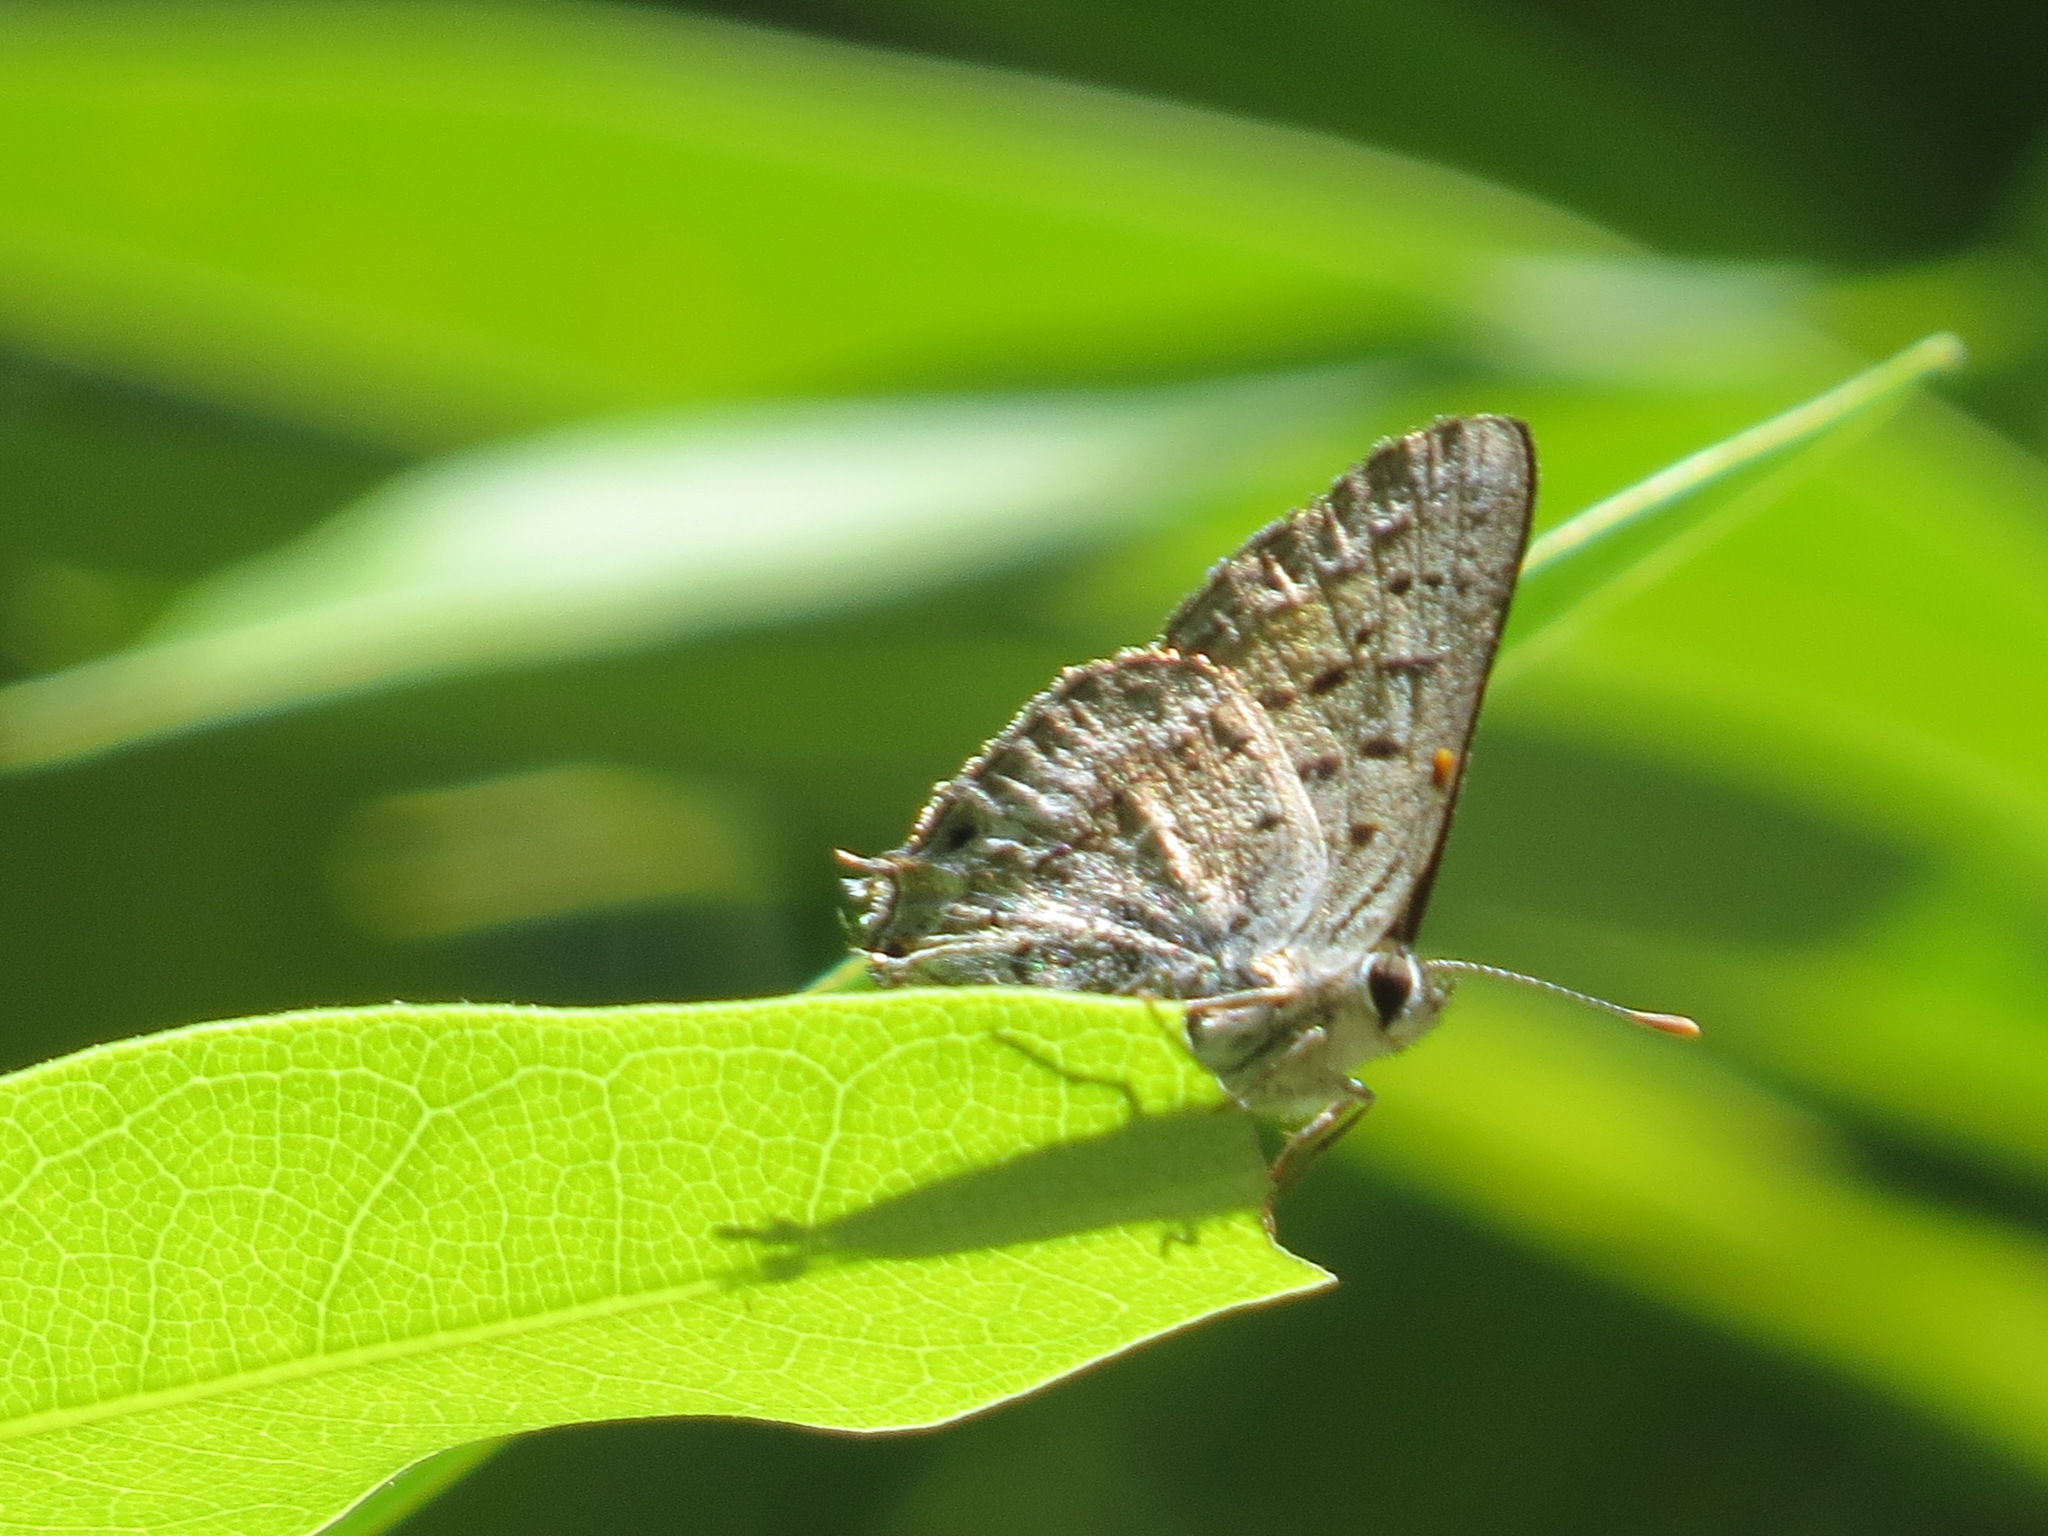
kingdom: Animalia
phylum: Arthropoda
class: Insecta
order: Lepidoptera
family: Lycaenidae
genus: Tharsalea
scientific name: Tharsalea arota
